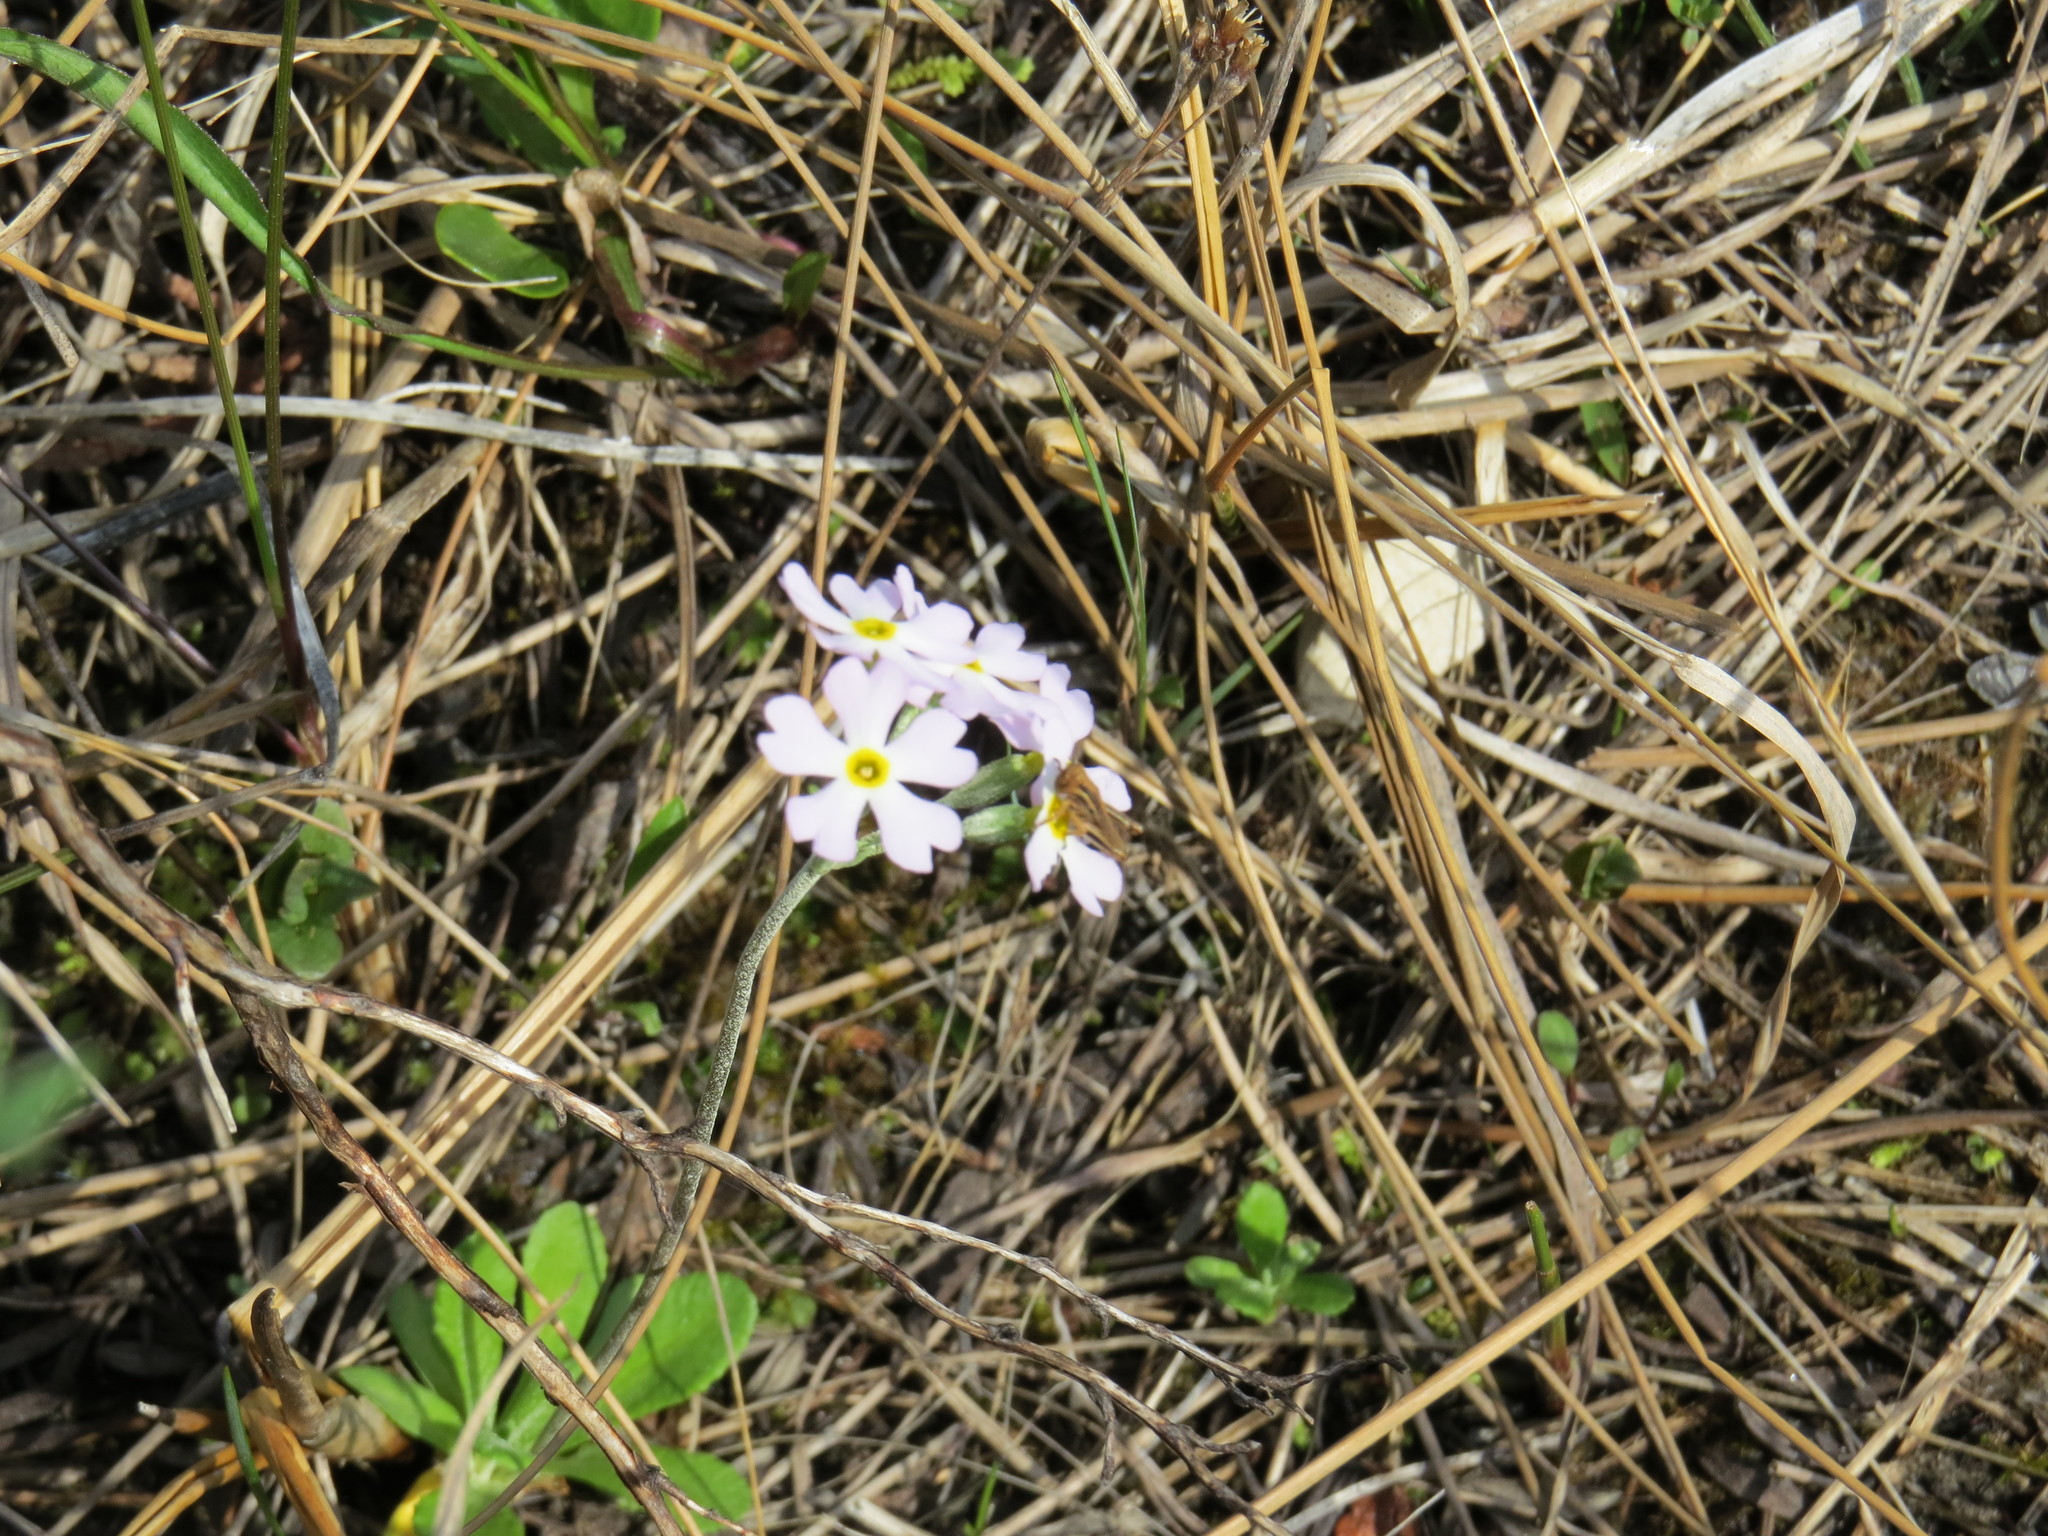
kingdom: Plantae
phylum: Tracheophyta
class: Magnoliopsida
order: Ericales
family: Primulaceae
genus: Primula
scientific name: Primula mistassinica
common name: Bird's-eye primrose
